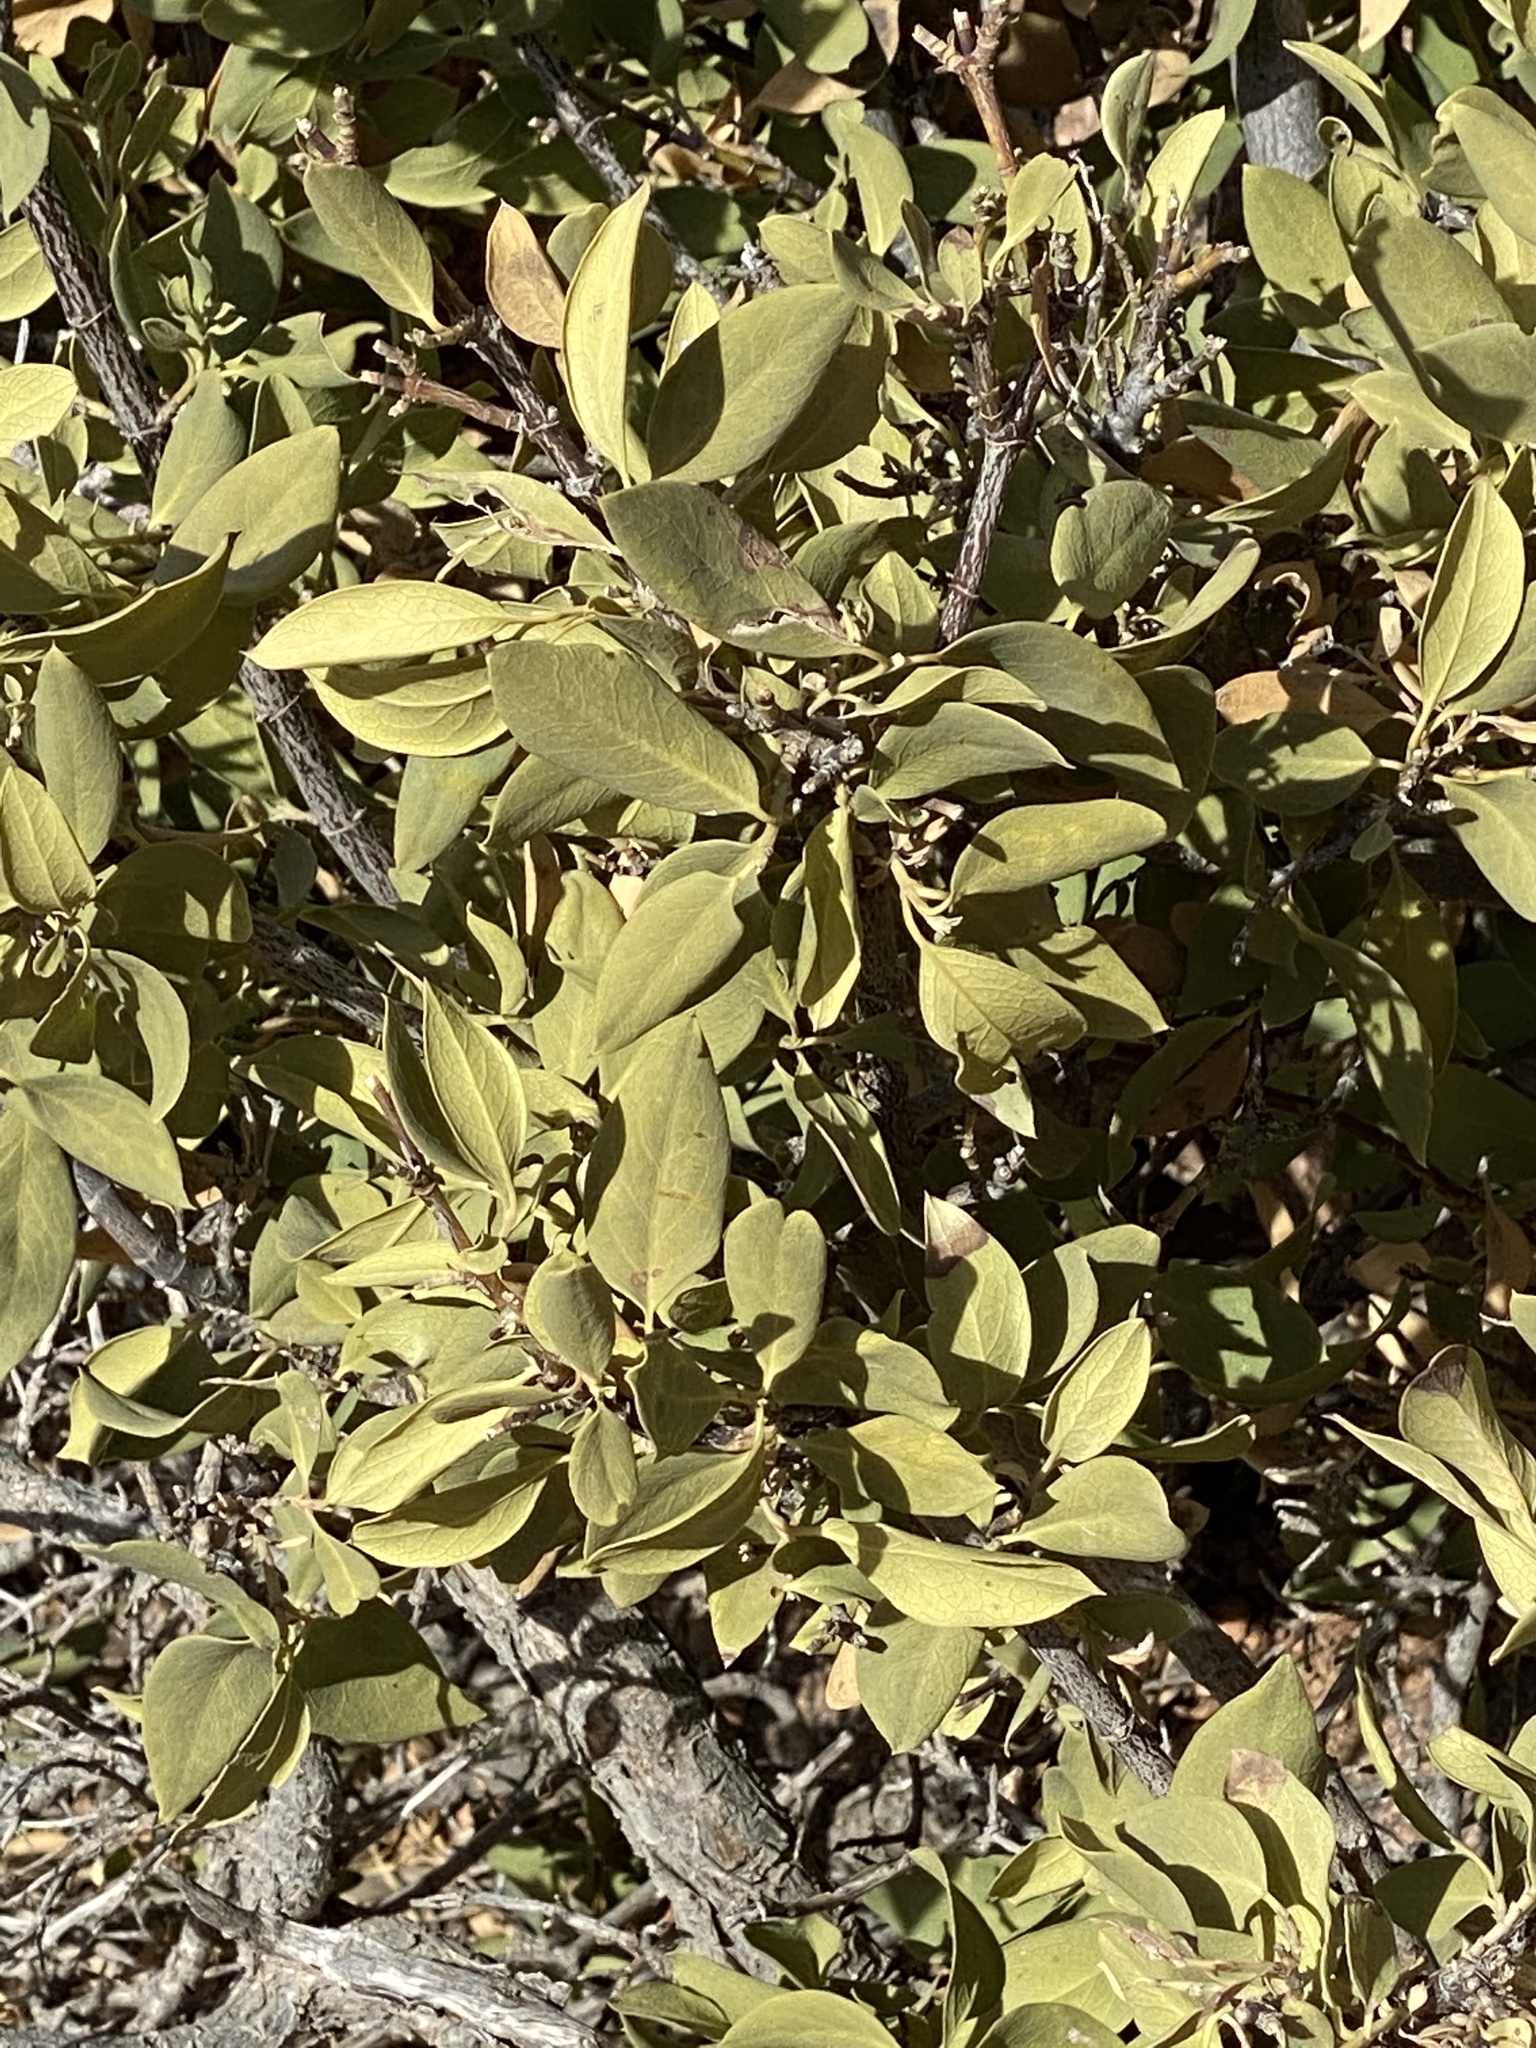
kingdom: Plantae
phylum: Tracheophyta
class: Magnoliopsida
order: Garryales
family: Garryaceae
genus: Garrya
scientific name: Garrya wrightii
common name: Wright's silktassel
